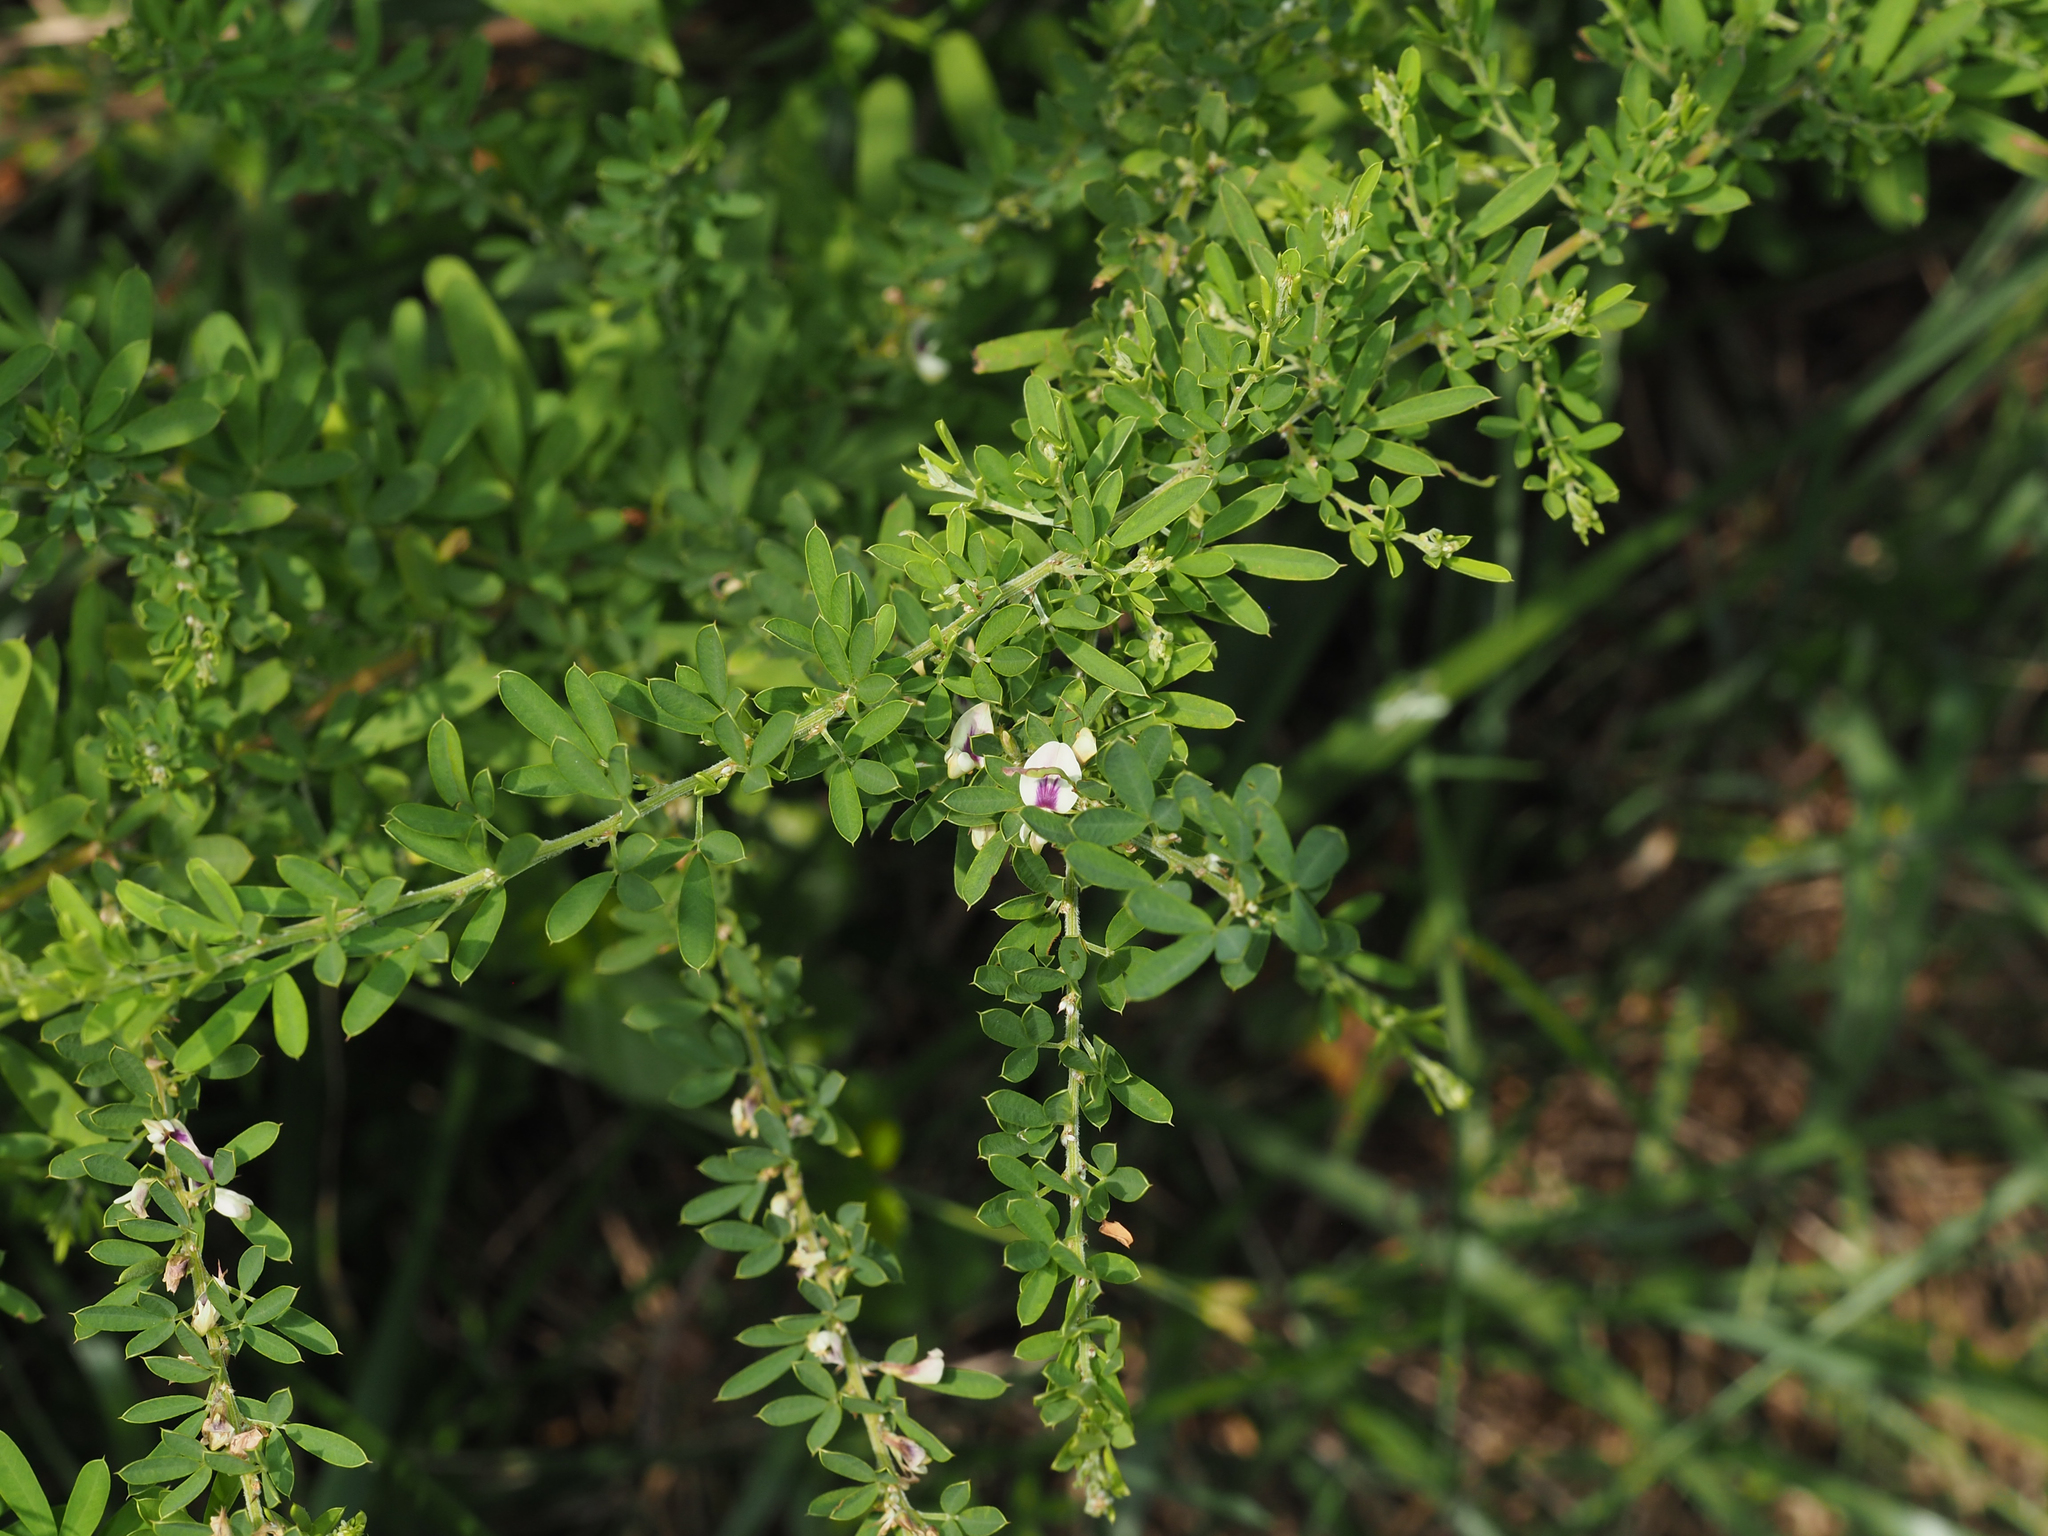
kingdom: Plantae
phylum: Tracheophyta
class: Magnoliopsida
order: Fabales
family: Fabaceae
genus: Lespedeza
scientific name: Lespedeza cuneata
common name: Chinese bush-clover
